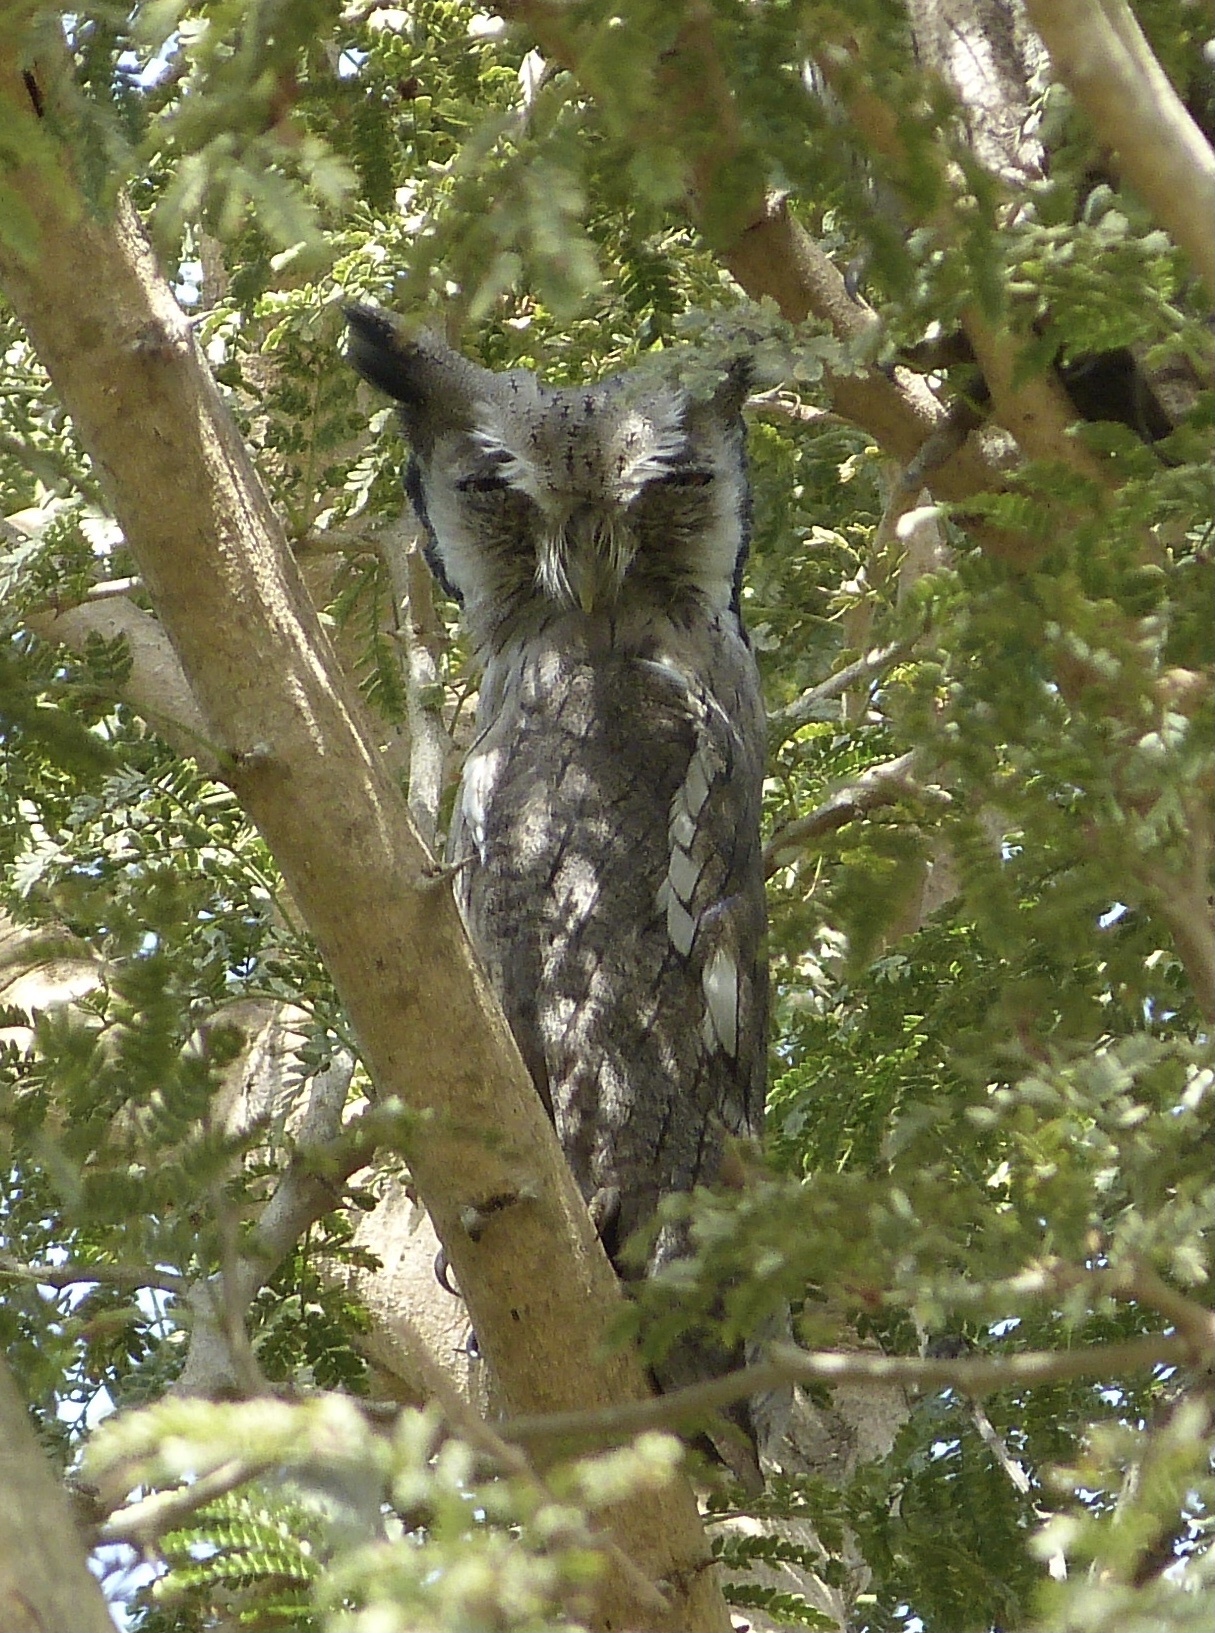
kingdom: Animalia
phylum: Chordata
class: Aves
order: Strigiformes
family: Strigidae
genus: Ptilopsis
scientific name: Ptilopsis leucotis
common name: Northern white-faced owl
